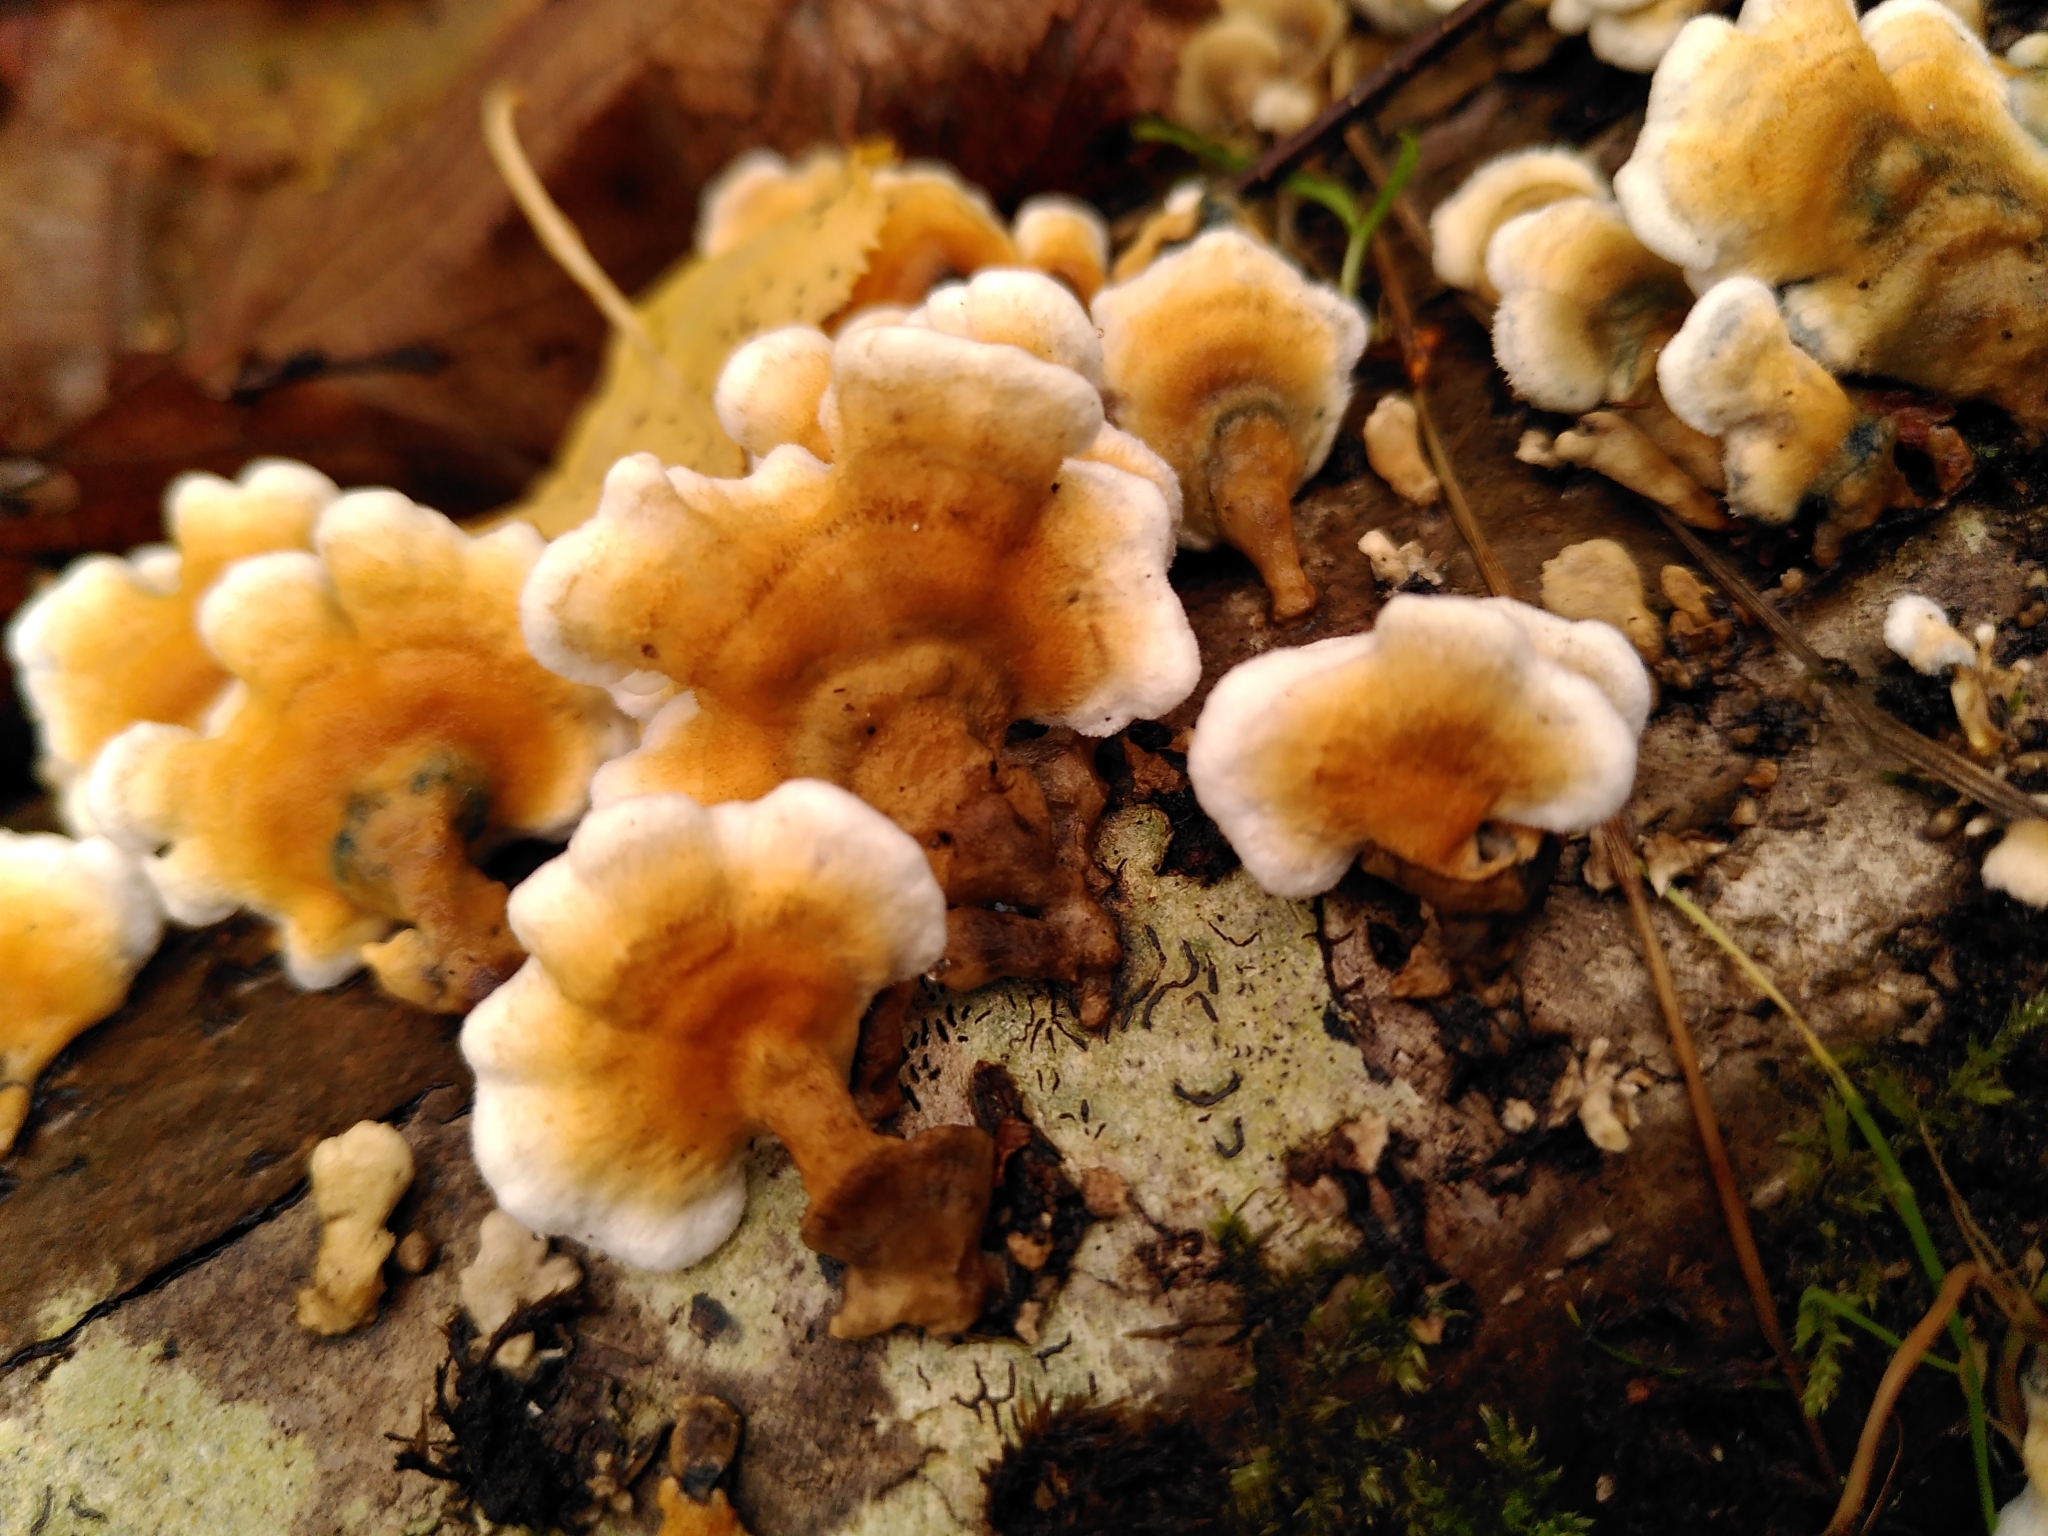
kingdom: Fungi
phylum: Basidiomycota
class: Agaricomycetes
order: Amylocorticiales
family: Amylocorticiaceae
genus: Plicaturopsis
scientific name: Plicaturopsis crispa
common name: Crimped gill
